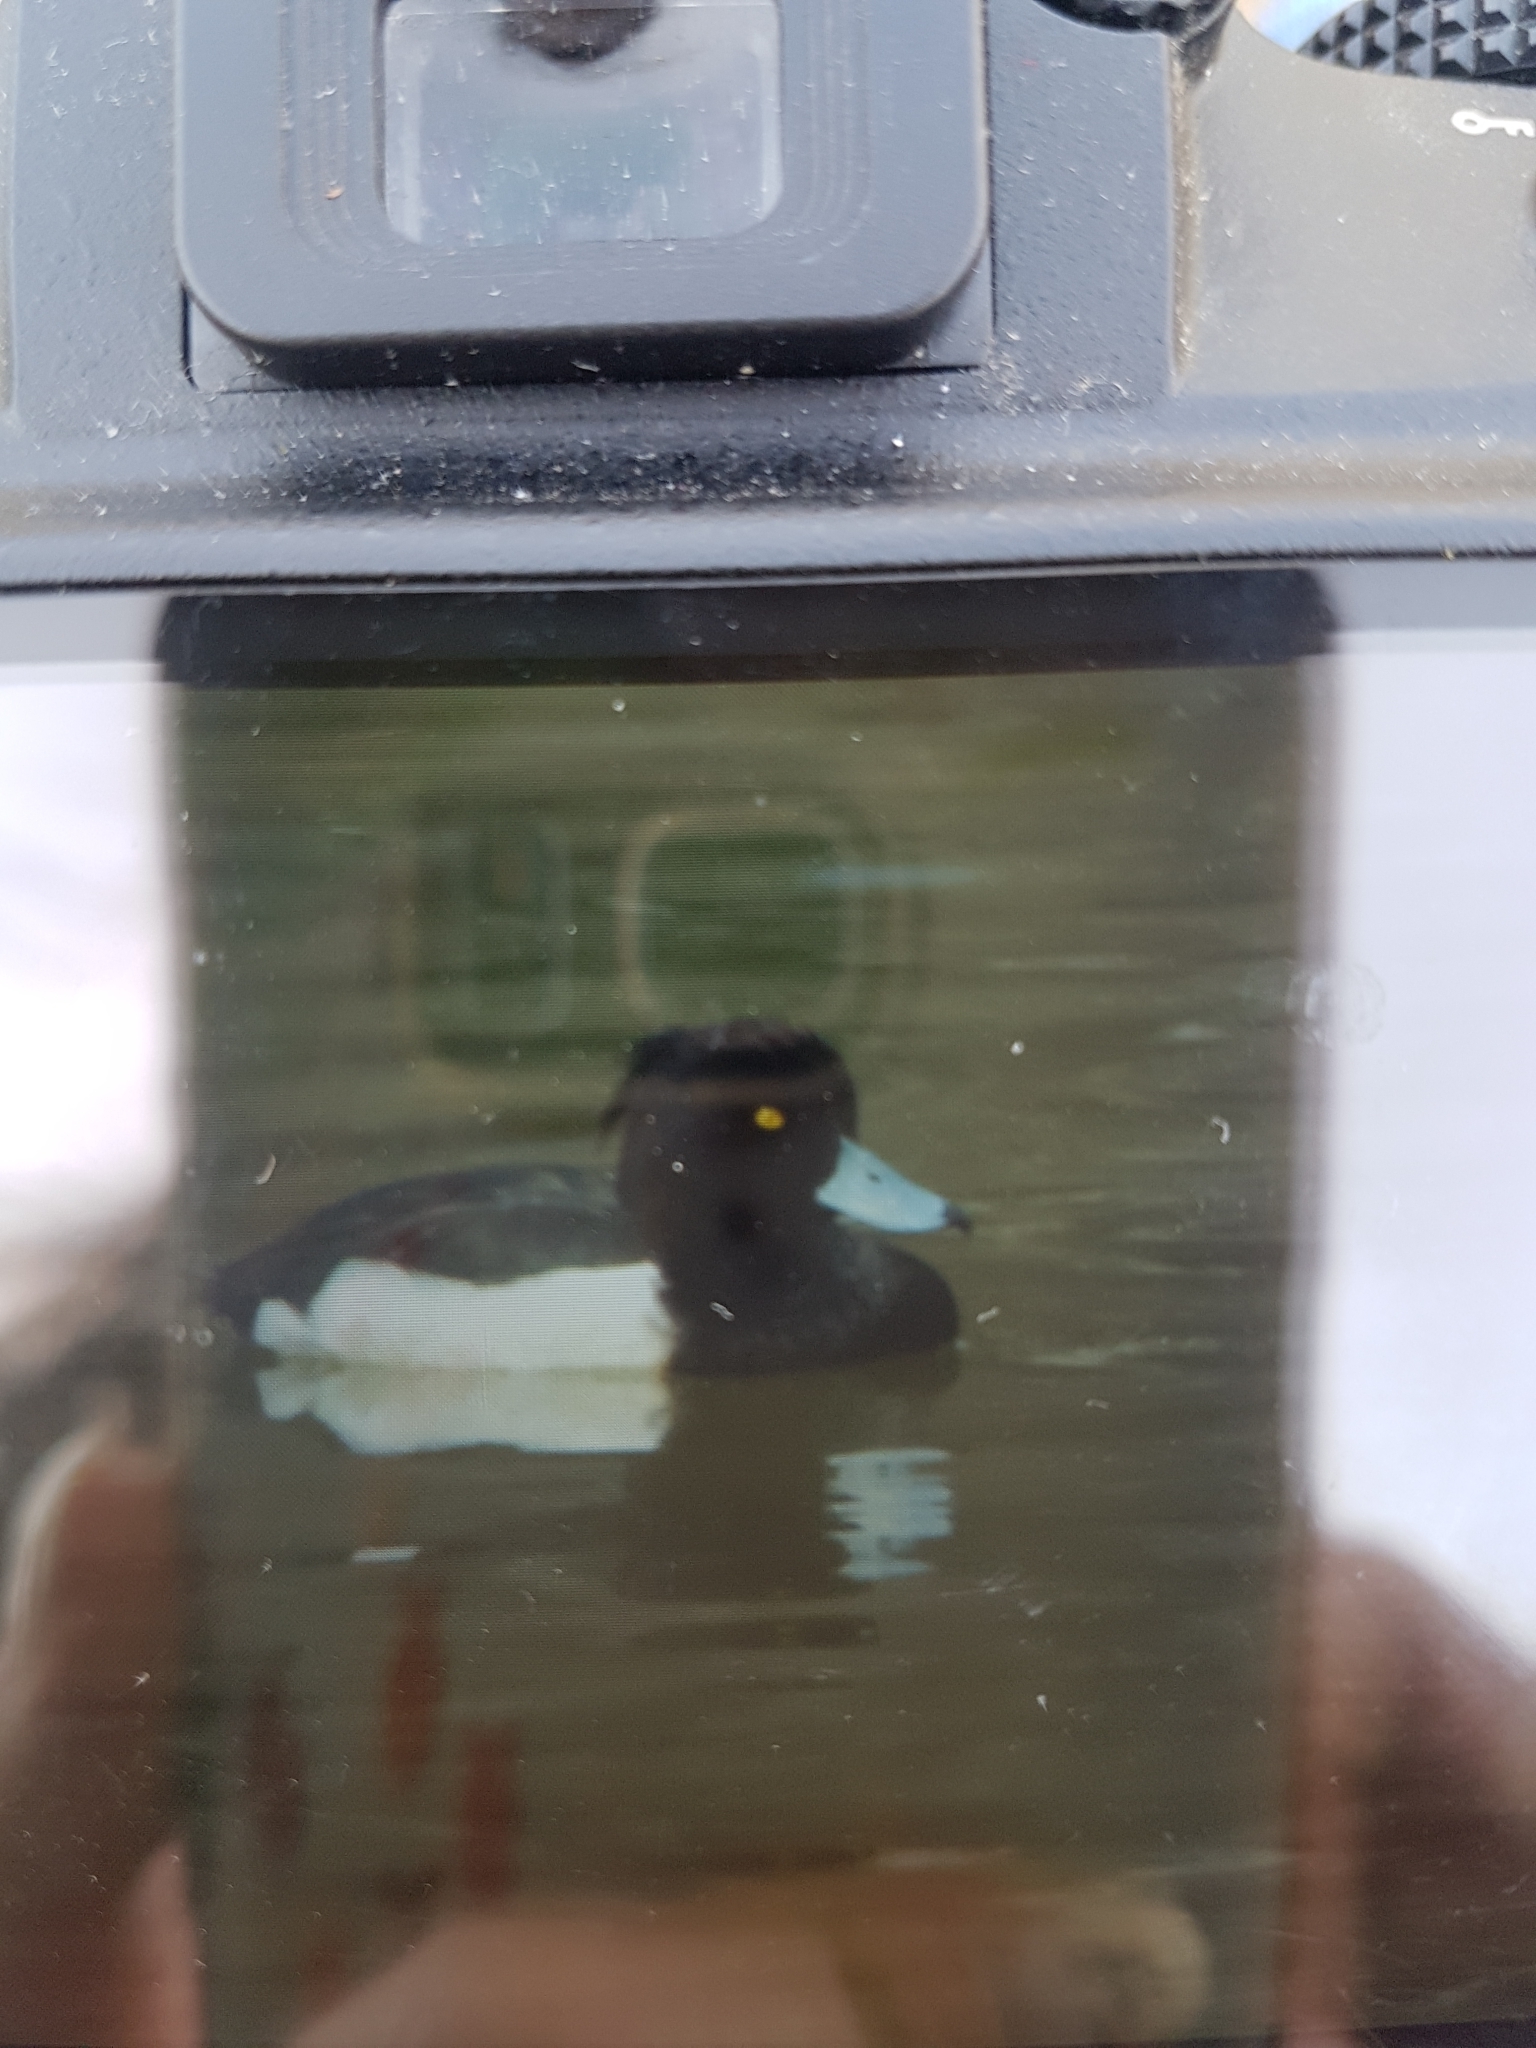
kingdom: Animalia
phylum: Chordata
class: Aves
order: Anseriformes
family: Anatidae
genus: Aythya
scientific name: Aythya fuligula
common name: Tufted duck
